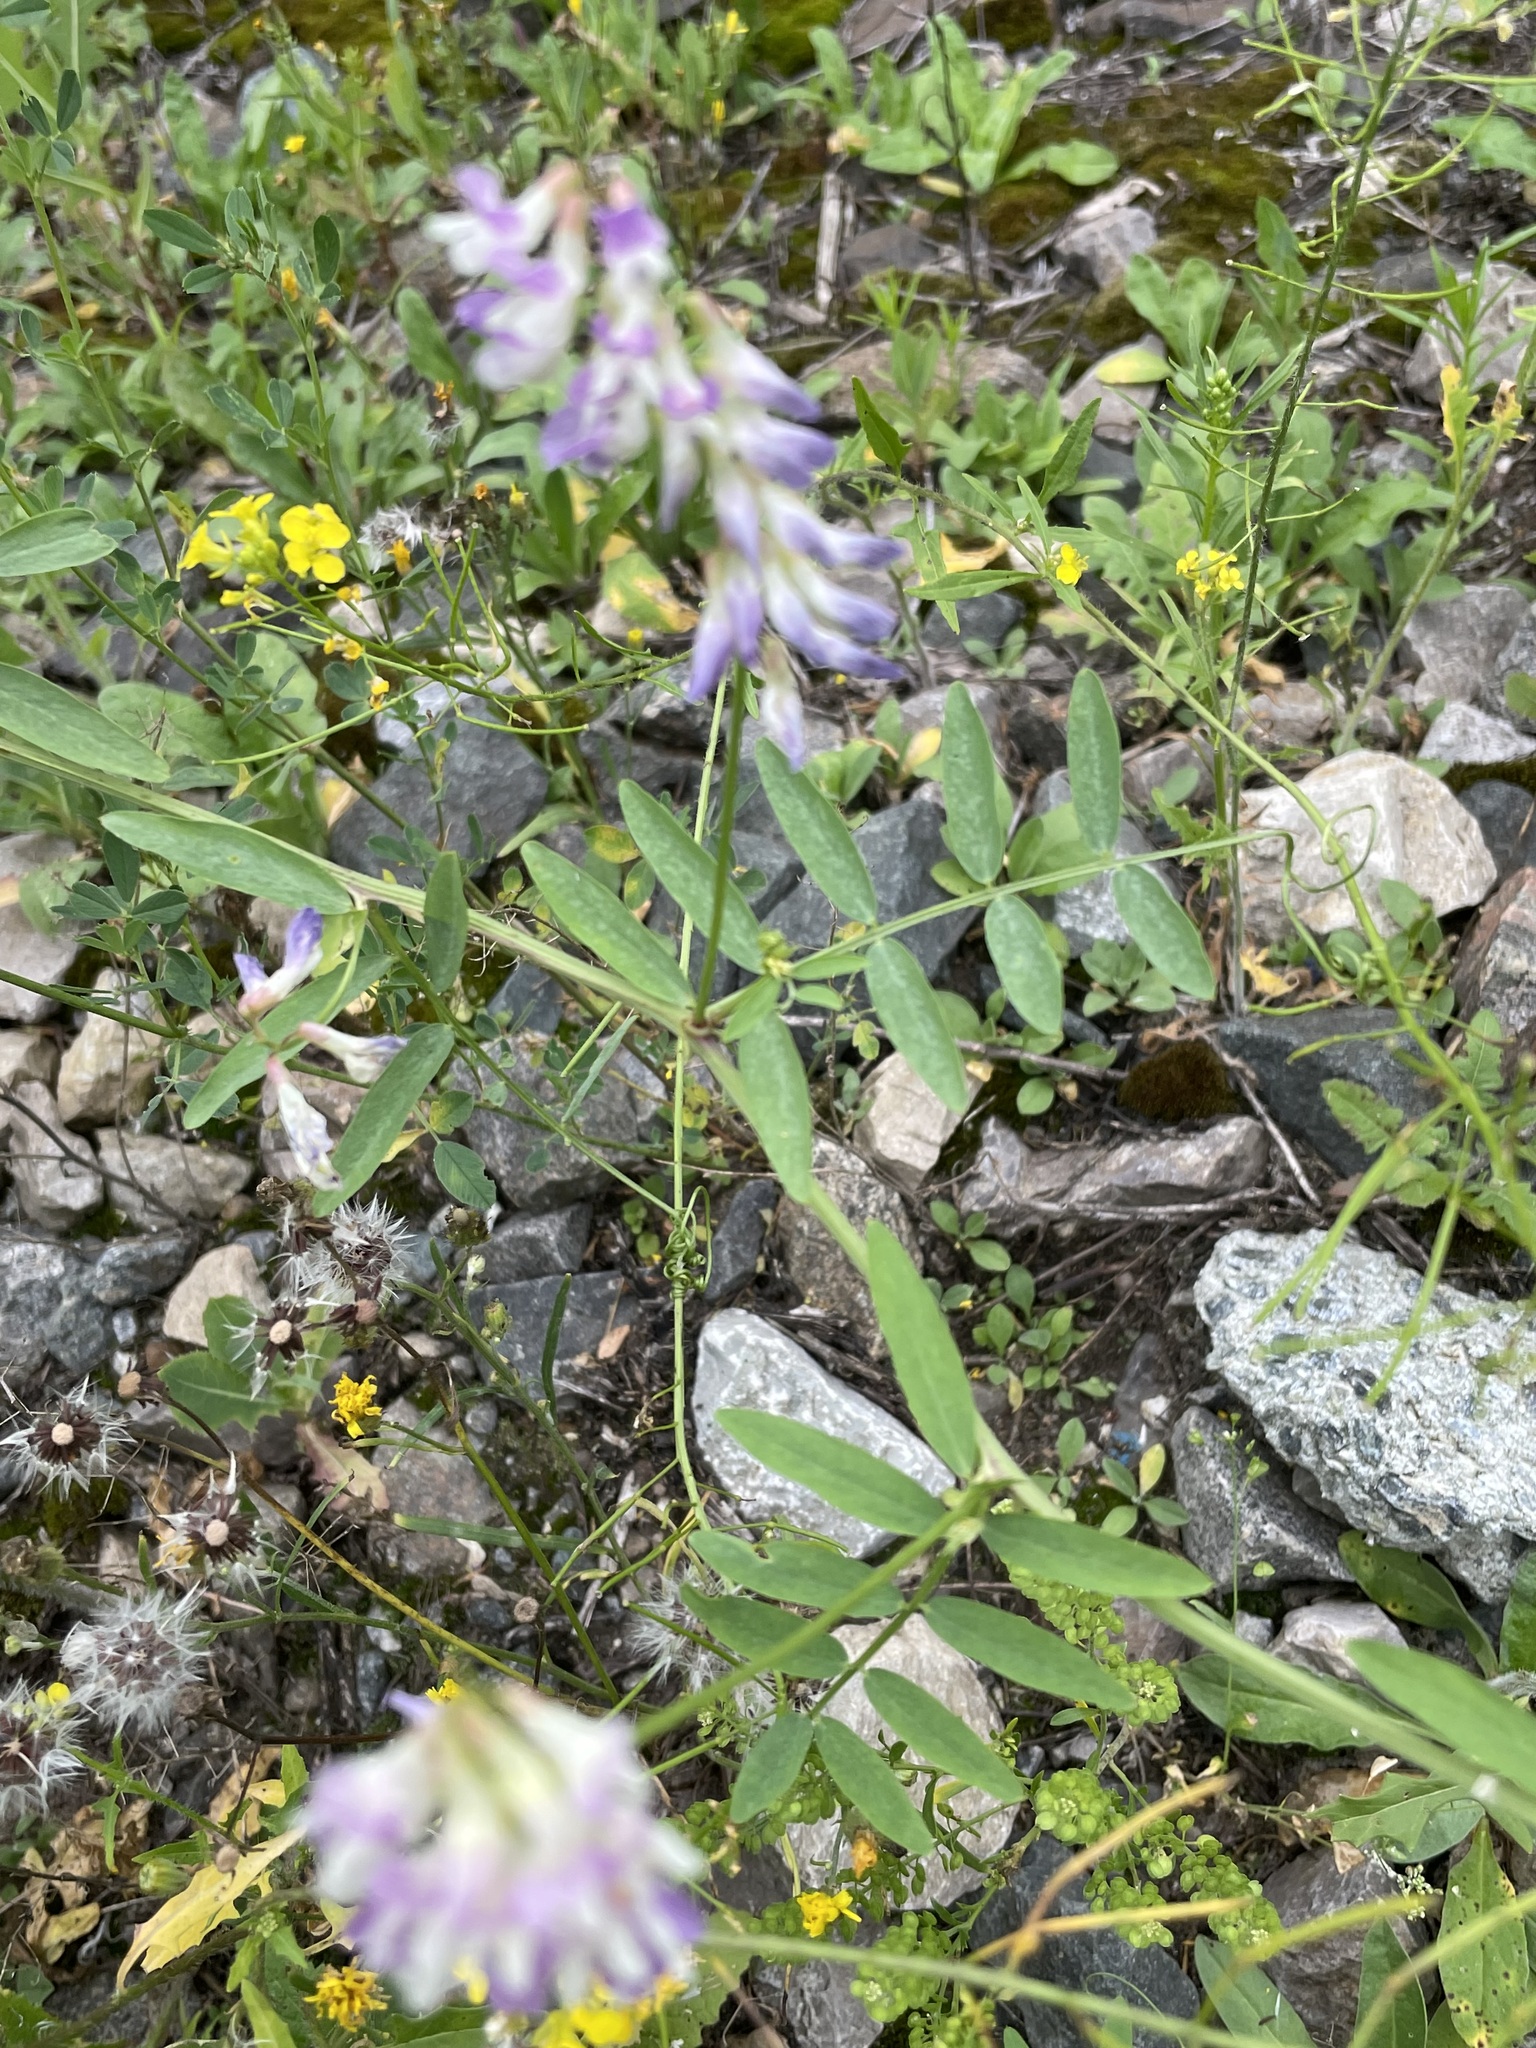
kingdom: Plantae
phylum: Tracheophyta
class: Magnoliopsida
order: Fabales
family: Fabaceae
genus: Vicia
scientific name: Vicia biennis
